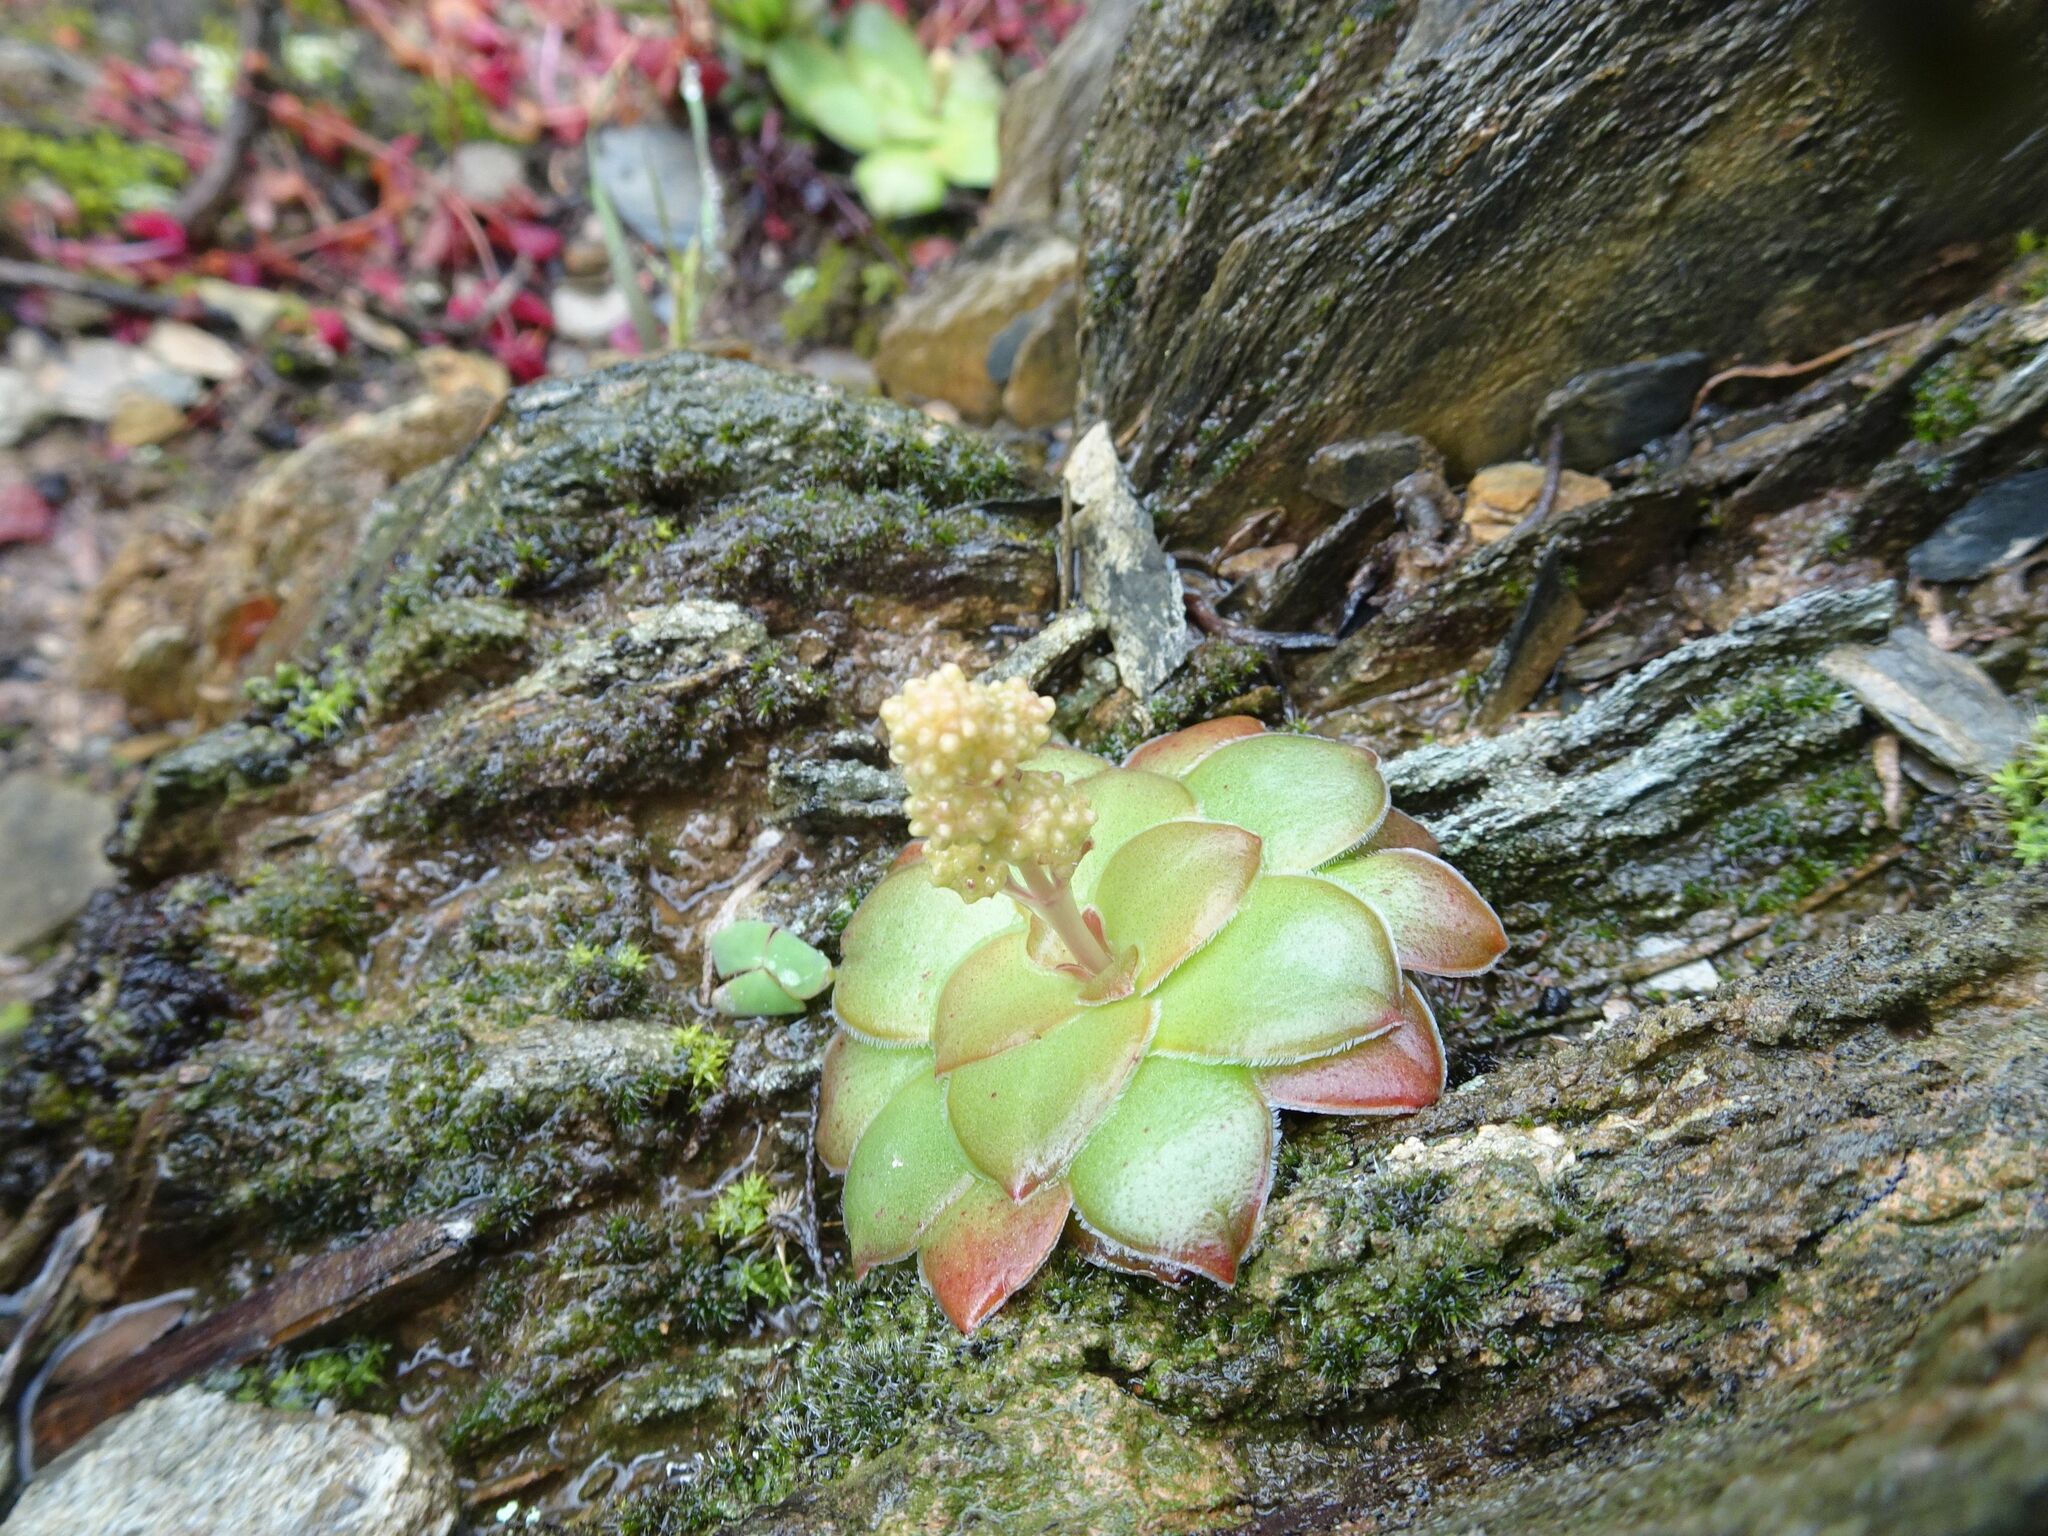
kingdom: Plantae
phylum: Tracheophyta
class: Magnoliopsida
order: Saxifragales
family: Crassulaceae
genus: Crassula
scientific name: Crassula orbicularis
